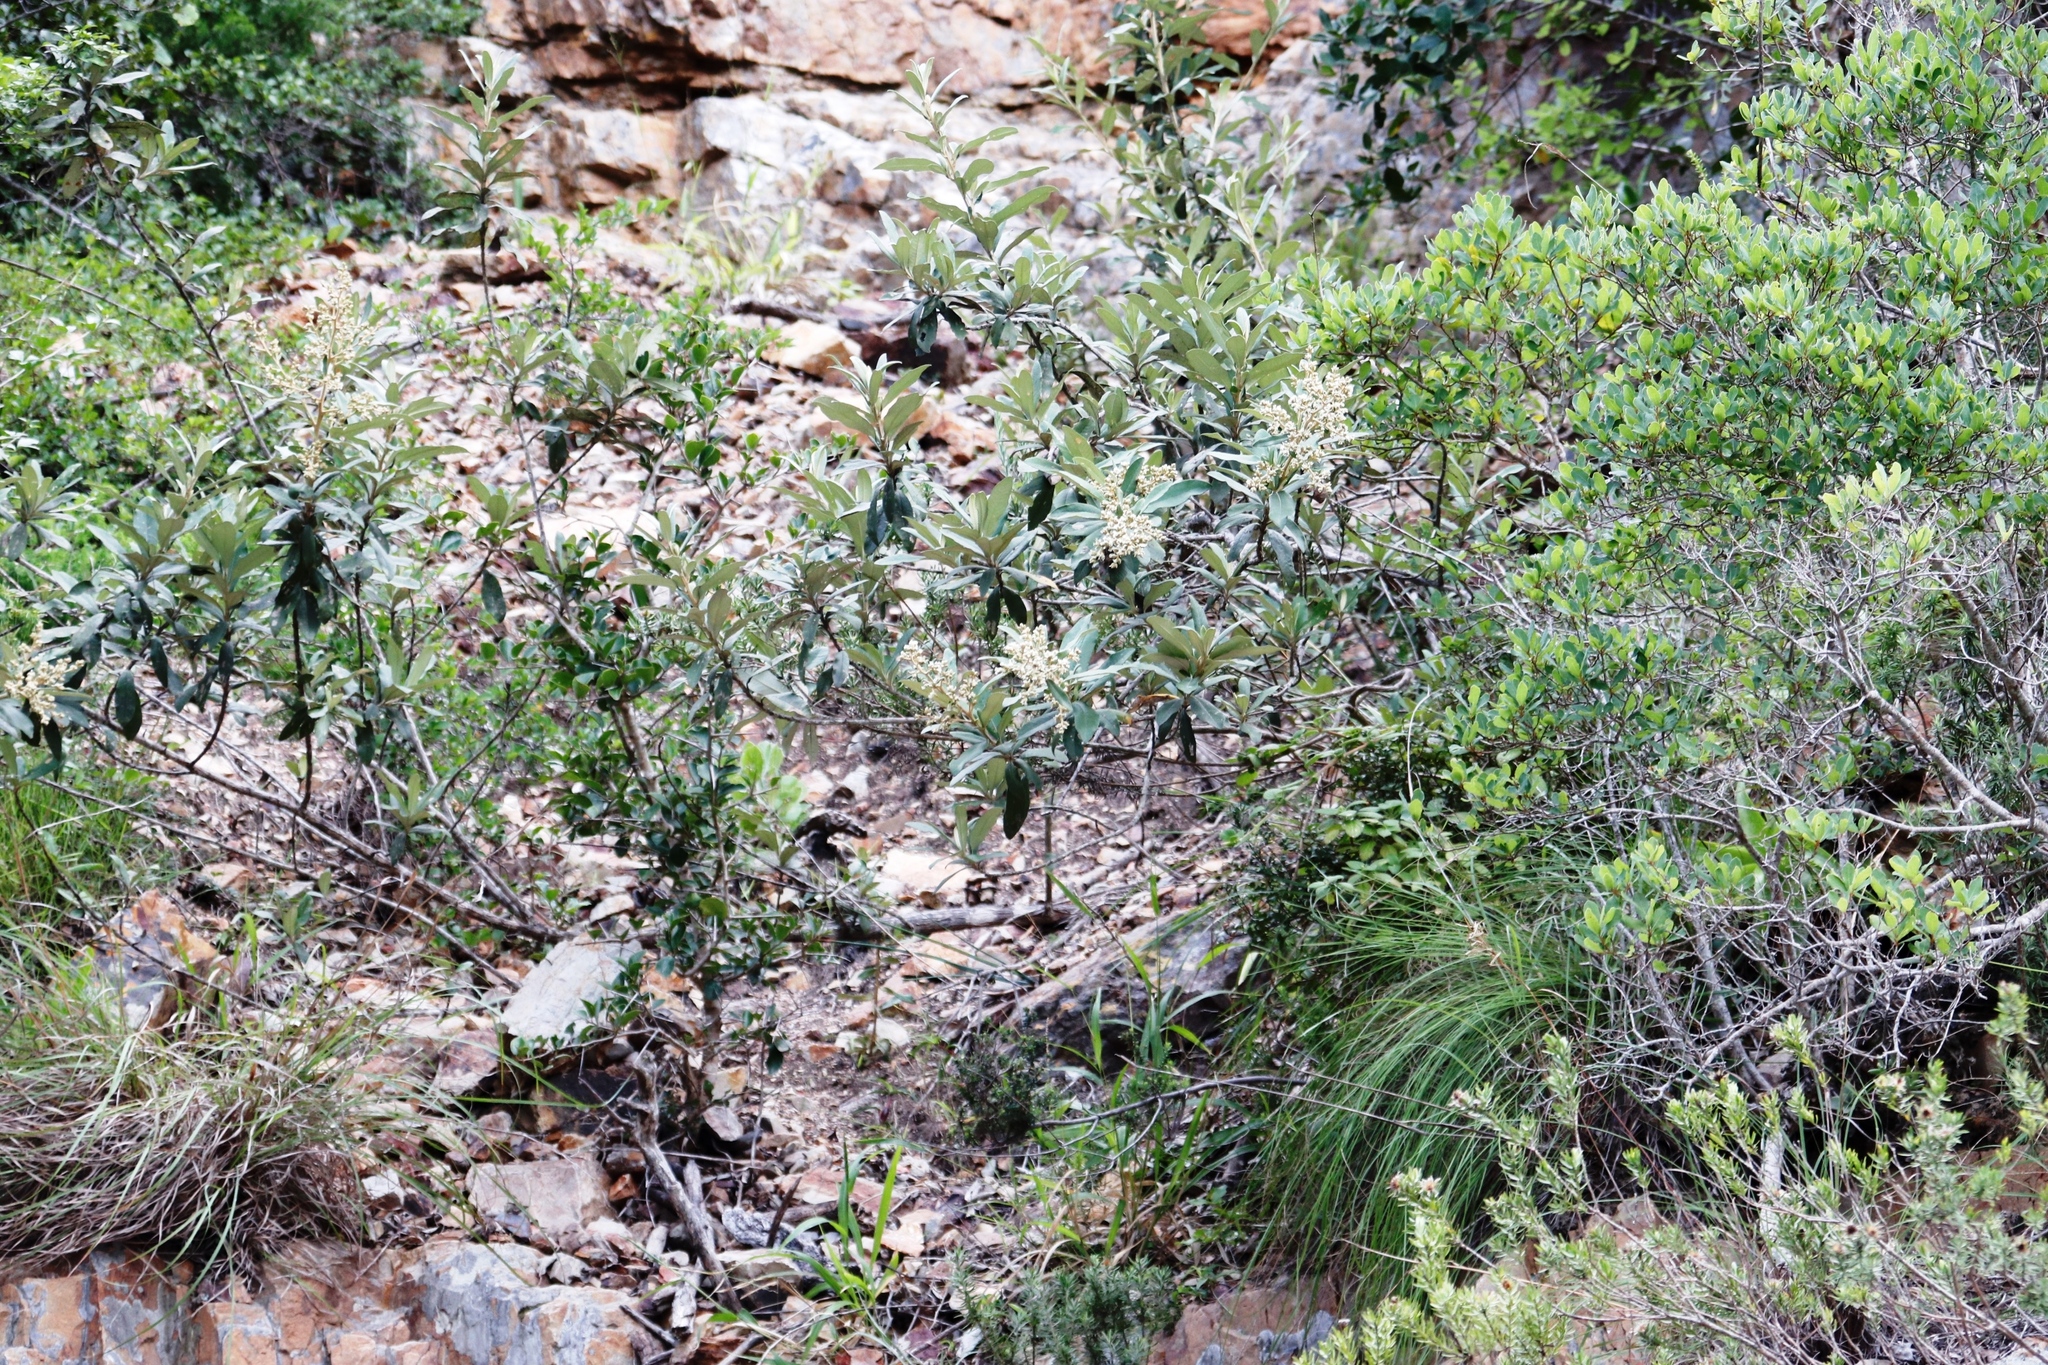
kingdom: Plantae
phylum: Tracheophyta
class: Magnoliopsida
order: Asterales
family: Asteraceae
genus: Tarchonanthus
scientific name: Tarchonanthus littoralis
